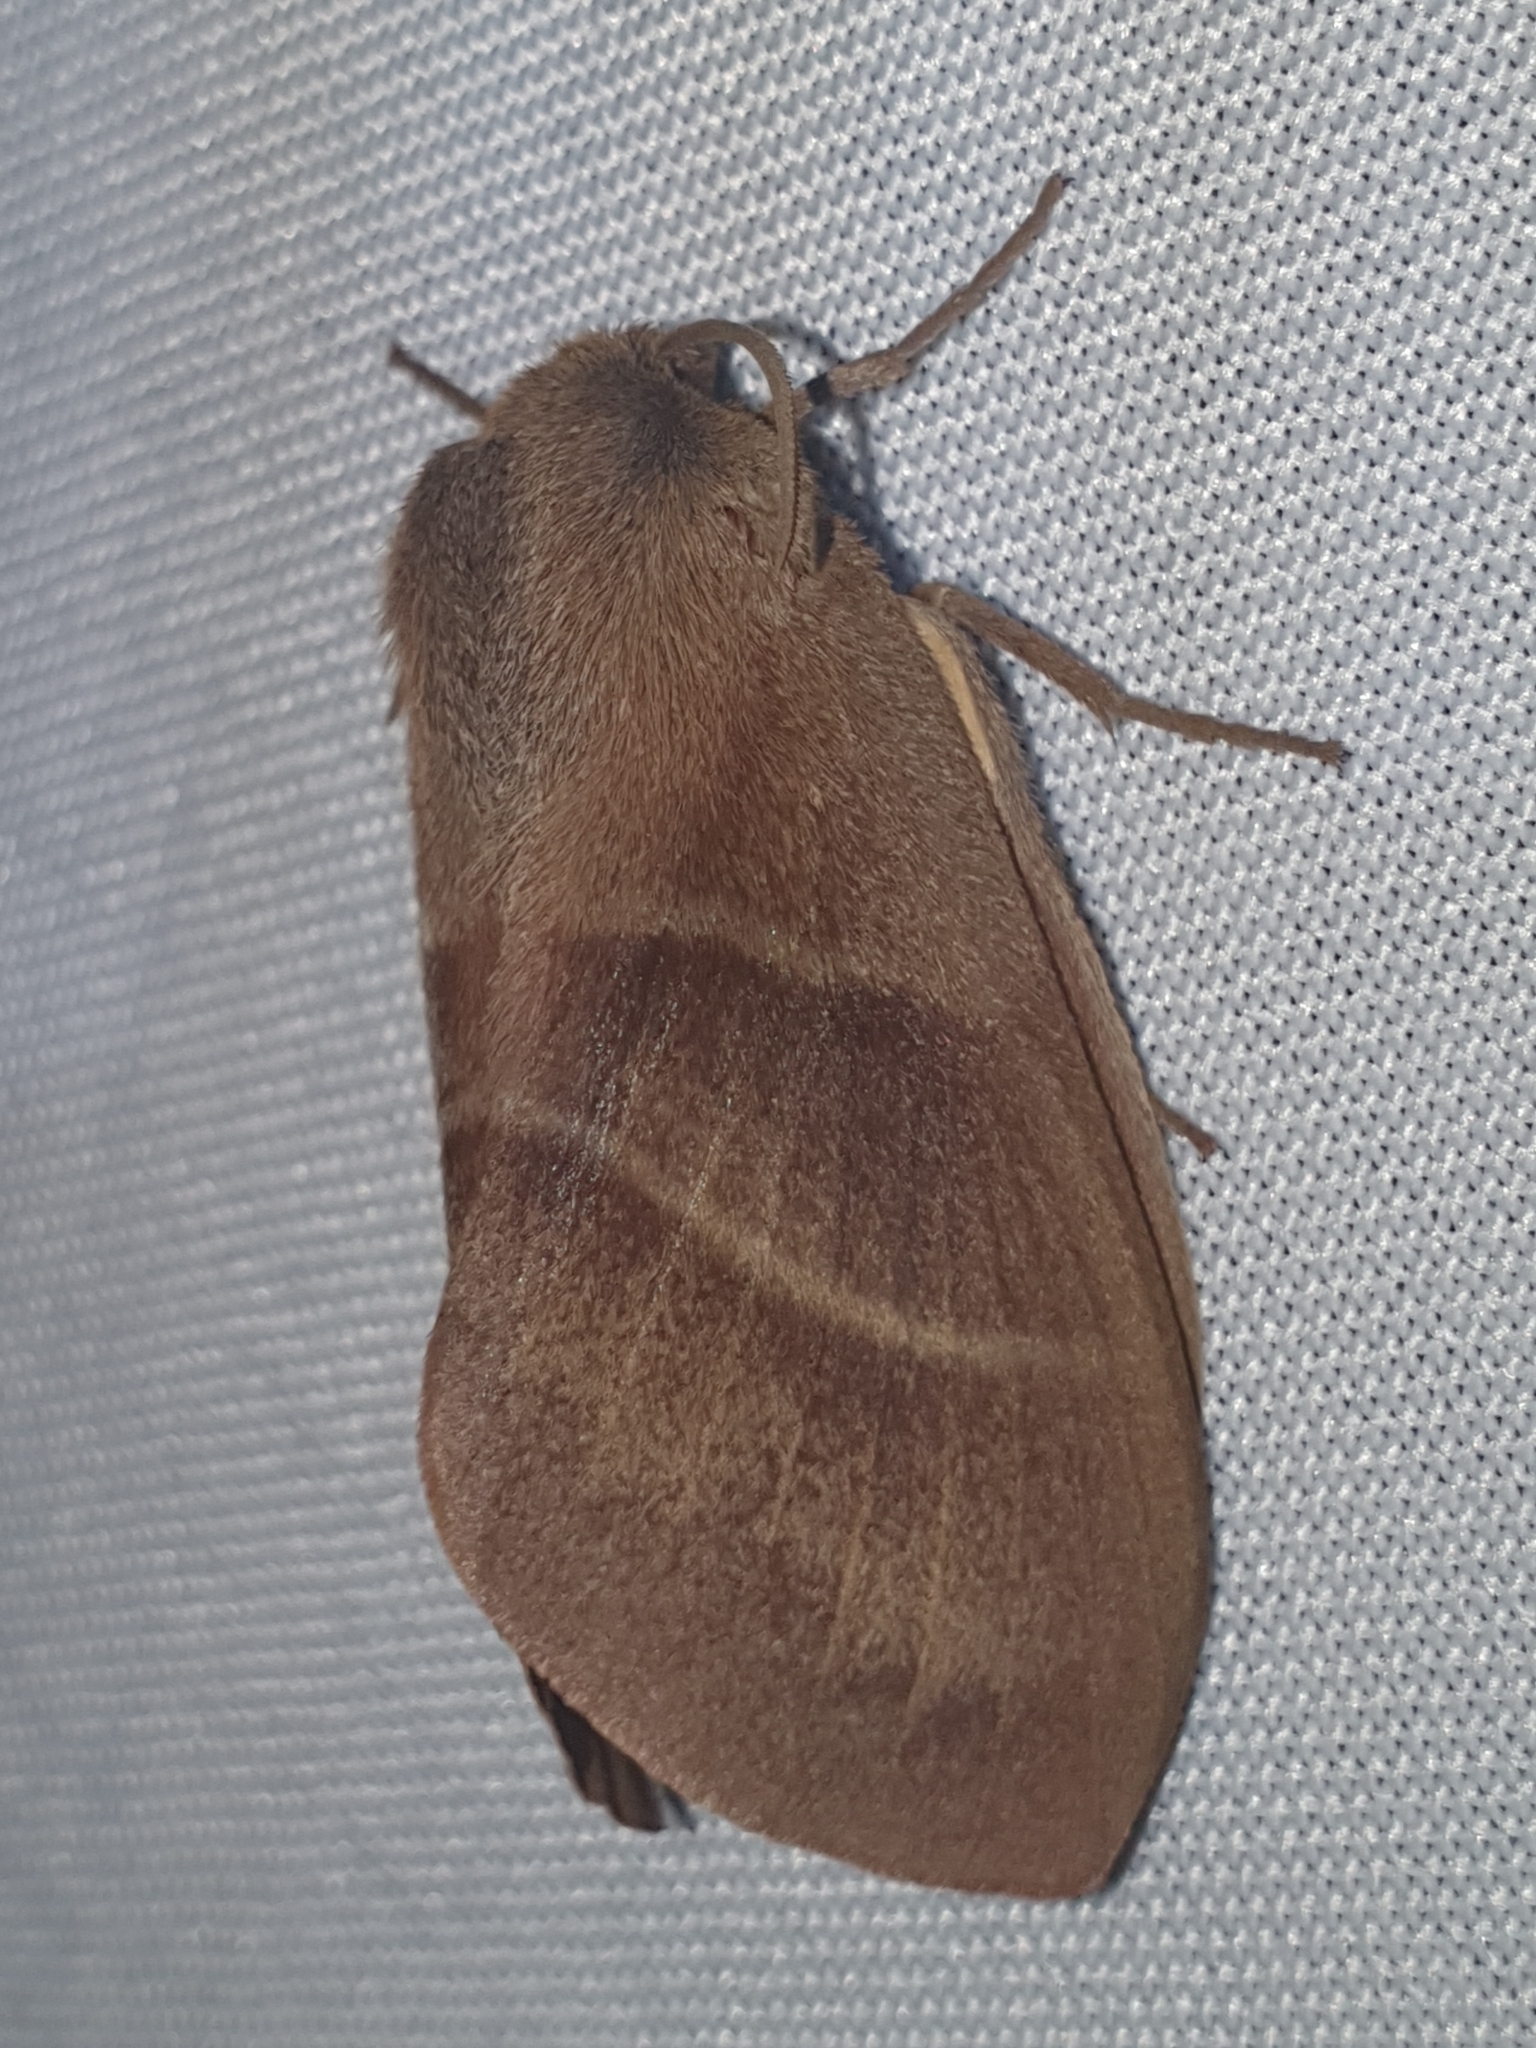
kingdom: Animalia
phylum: Arthropoda
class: Insecta
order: Lepidoptera
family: Lasiocampidae
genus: Macrothylacia
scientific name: Macrothylacia rubi
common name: Fox moth
